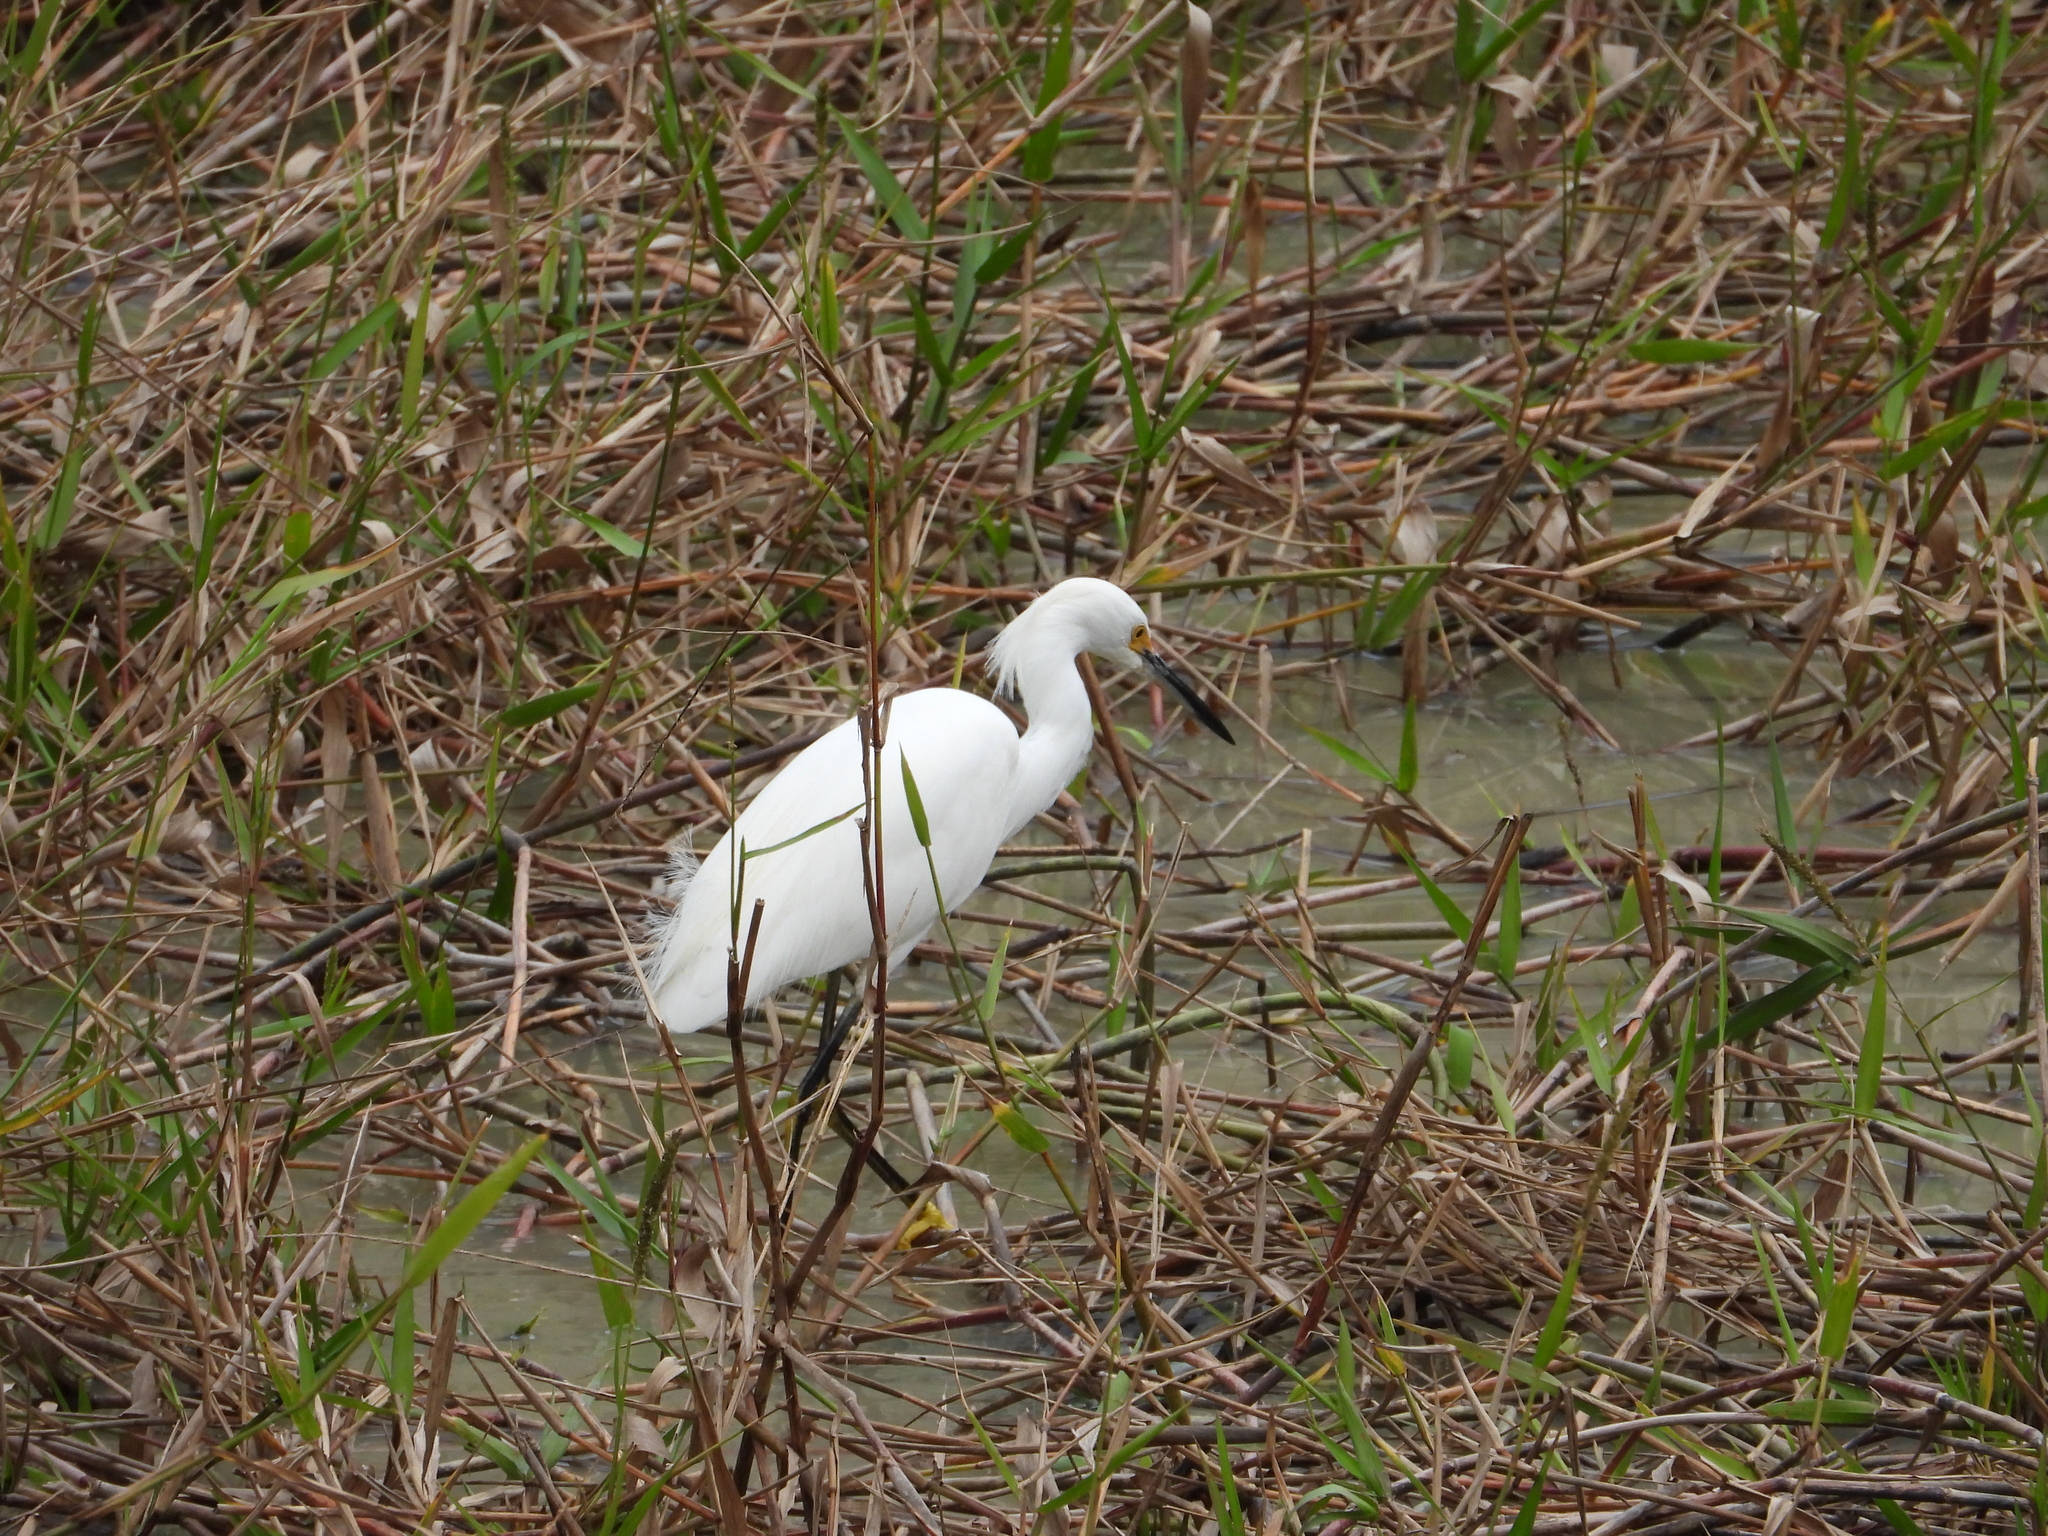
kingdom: Animalia
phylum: Chordata
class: Aves
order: Pelecaniformes
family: Ardeidae
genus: Egretta
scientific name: Egretta thula
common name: Snowy egret
